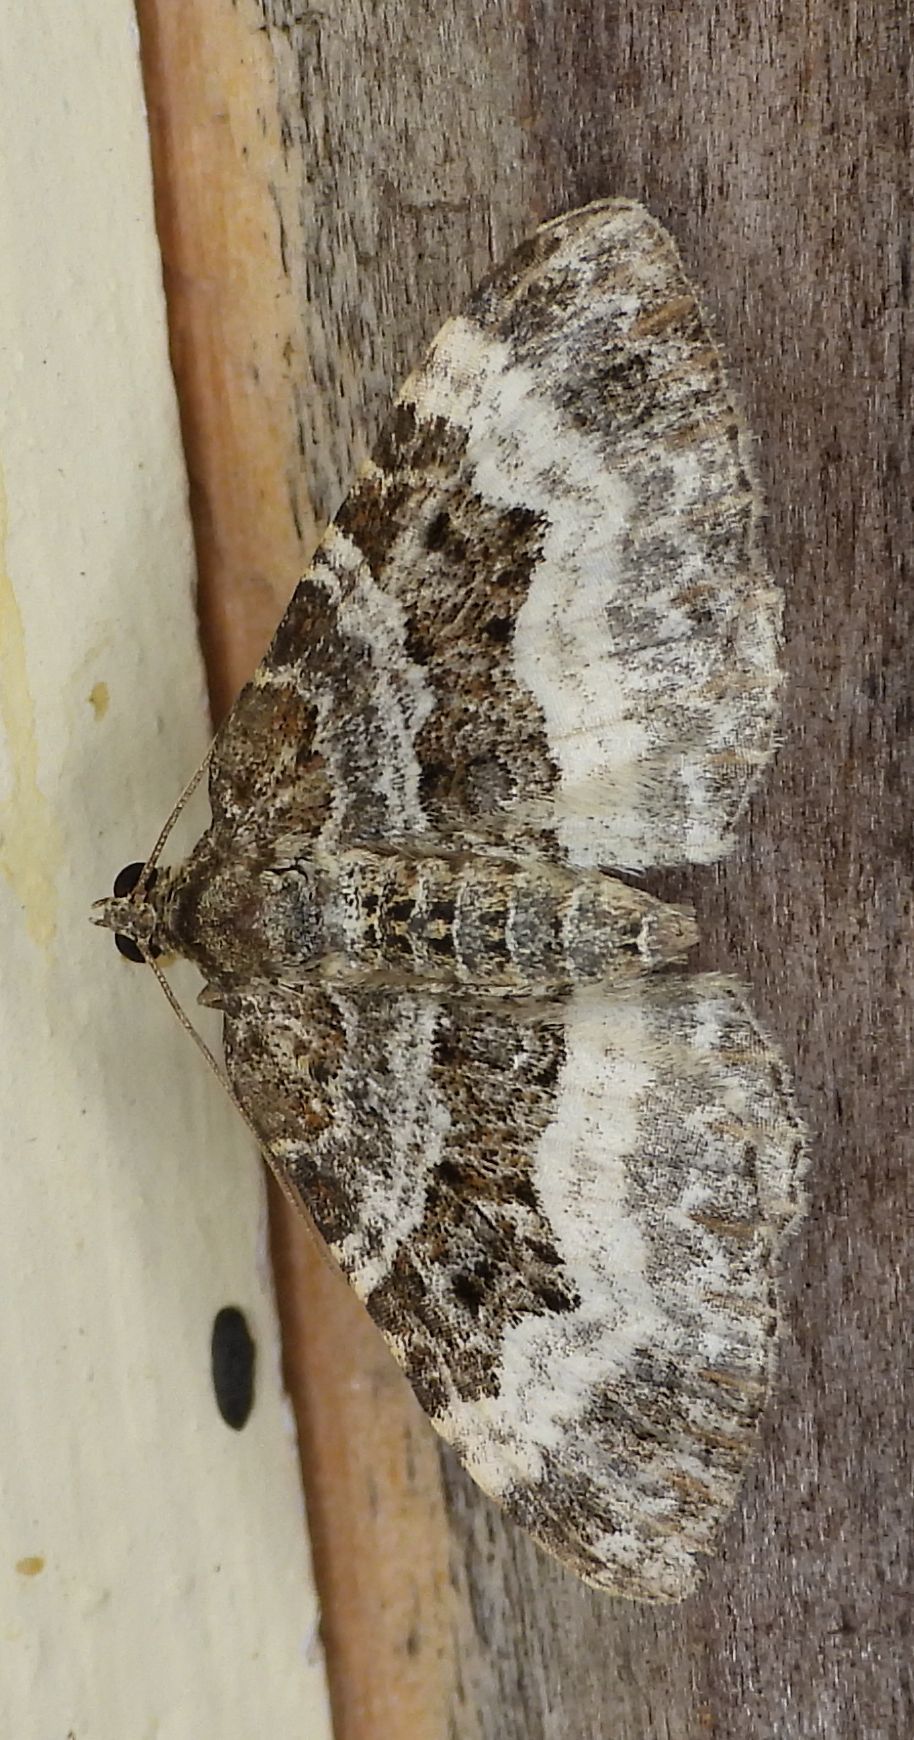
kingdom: Animalia
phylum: Arthropoda
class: Insecta
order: Lepidoptera
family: Geometridae
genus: Epirrhoe
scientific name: Epirrhoe alternata
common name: Common carpet
